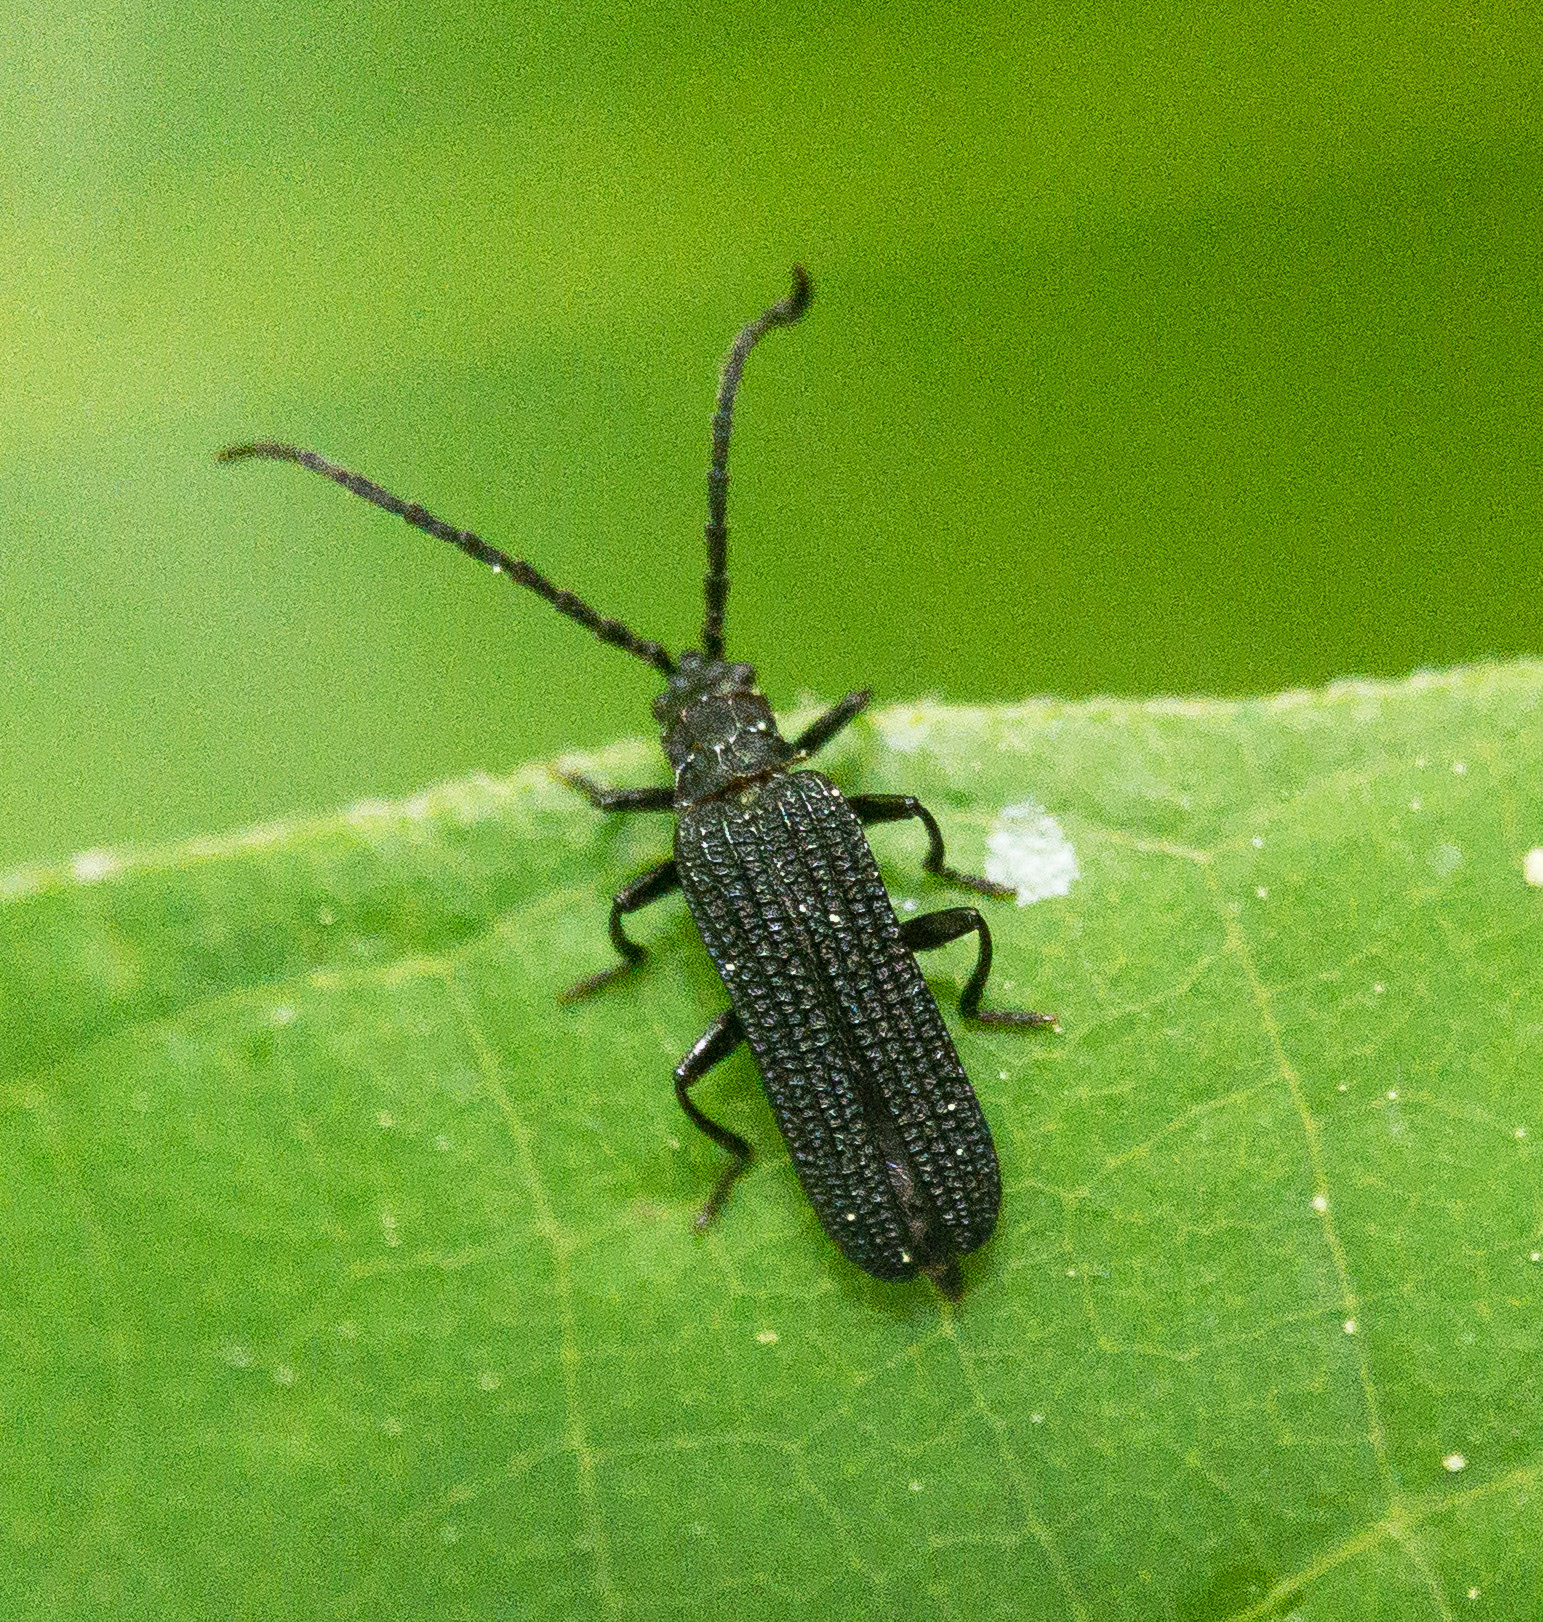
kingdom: Animalia
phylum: Arthropoda
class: Insecta
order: Coleoptera
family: Lycidae
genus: Erotides
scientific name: Erotides sculptilis
